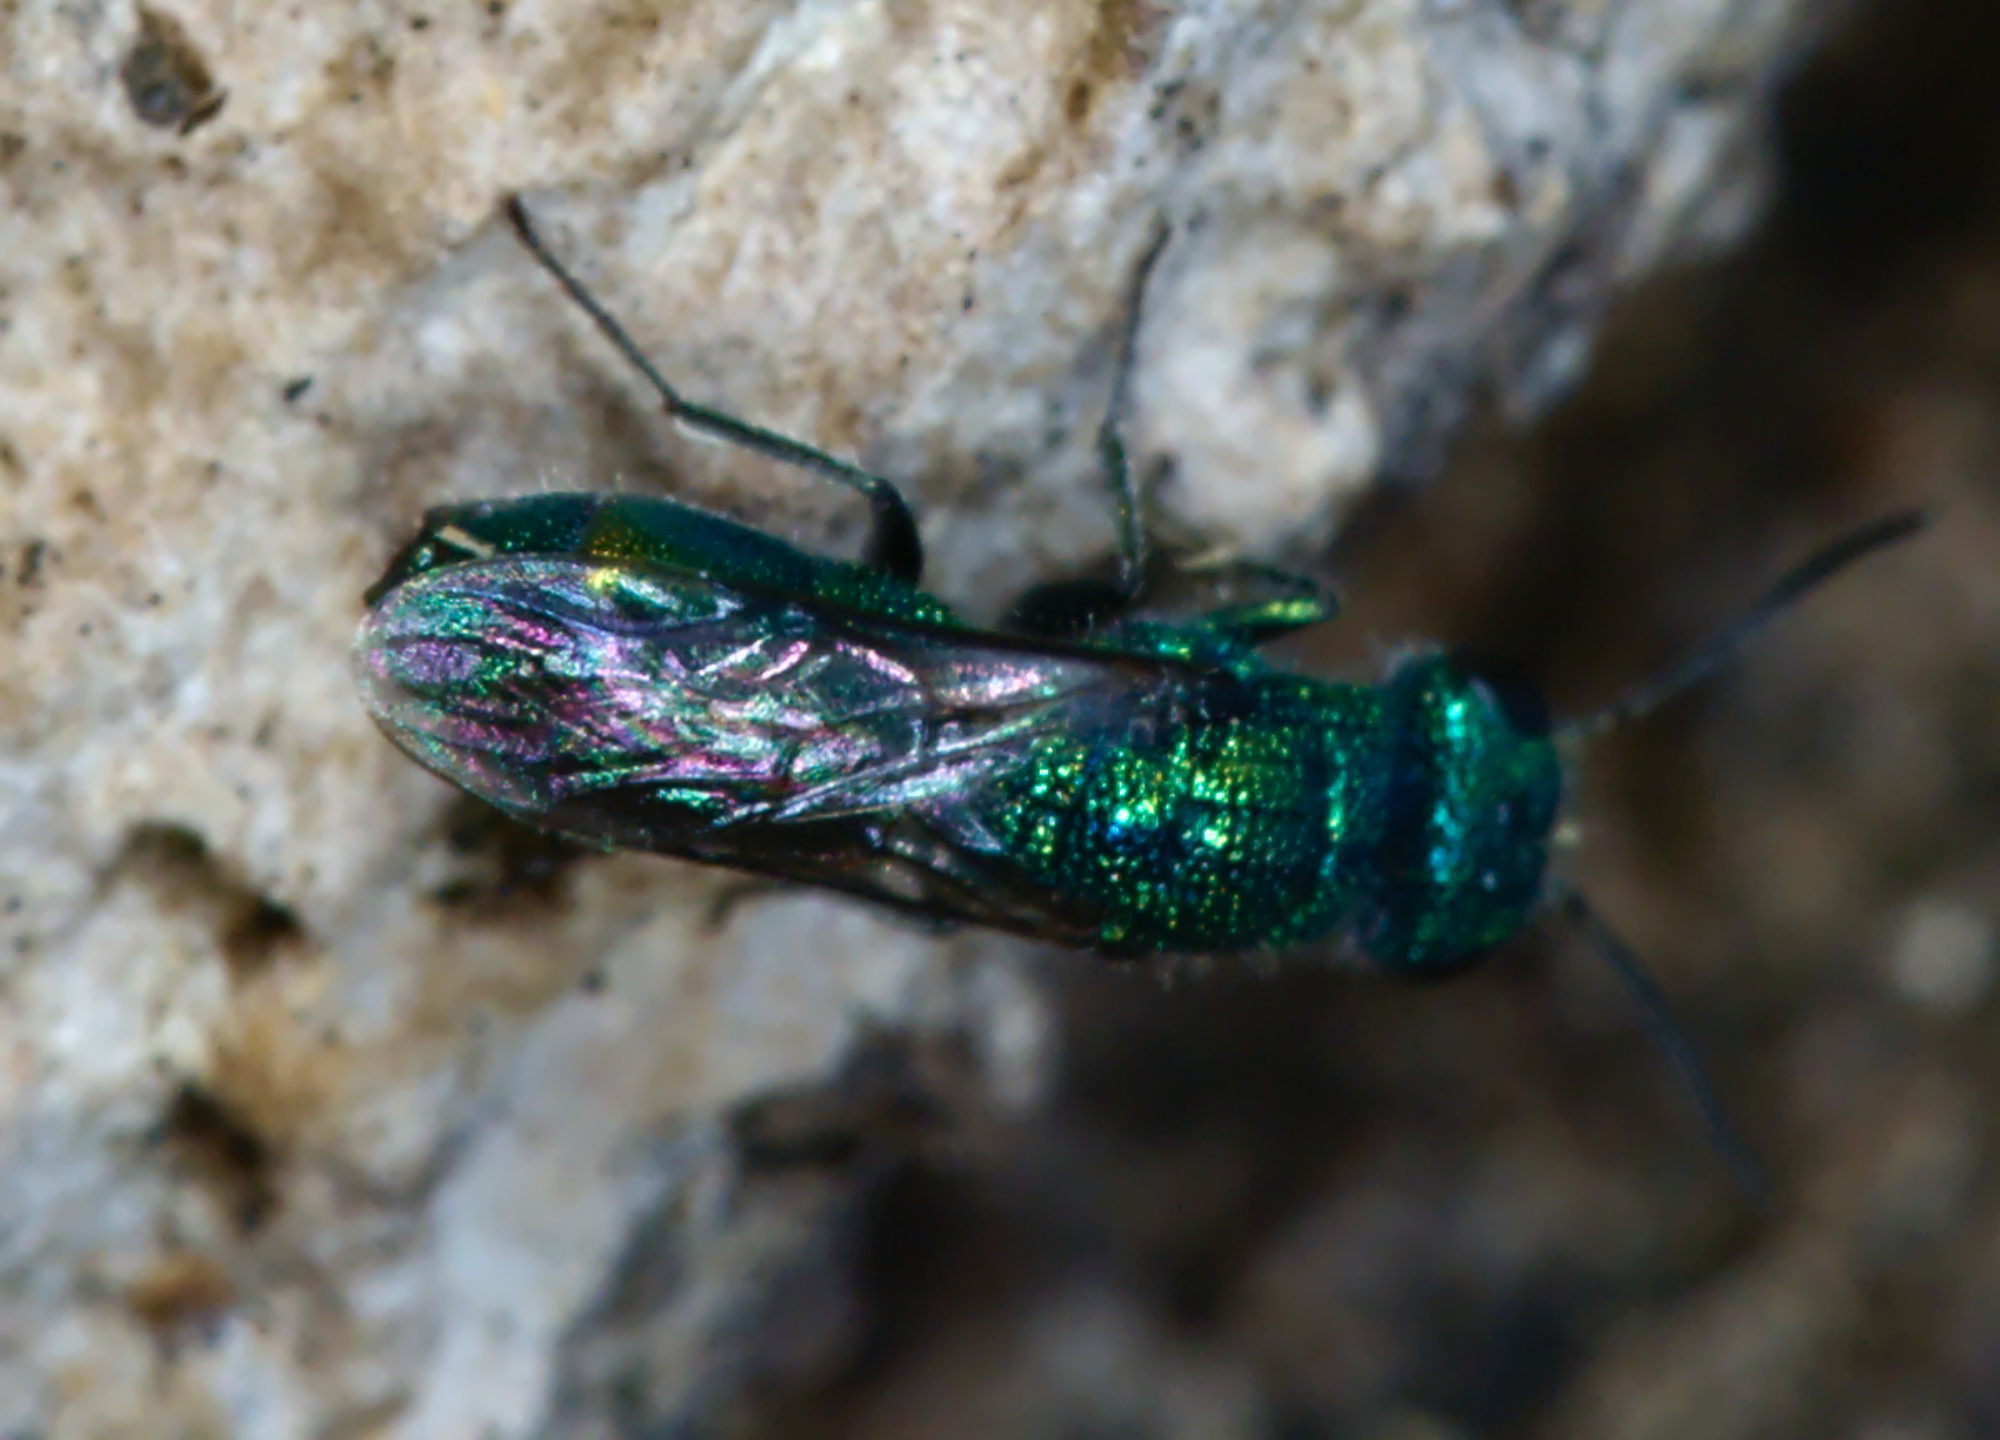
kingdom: Animalia
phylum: Arthropoda
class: Insecta
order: Hymenoptera
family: Pompilidae
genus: Pepsis
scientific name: Pepsis cyanea
